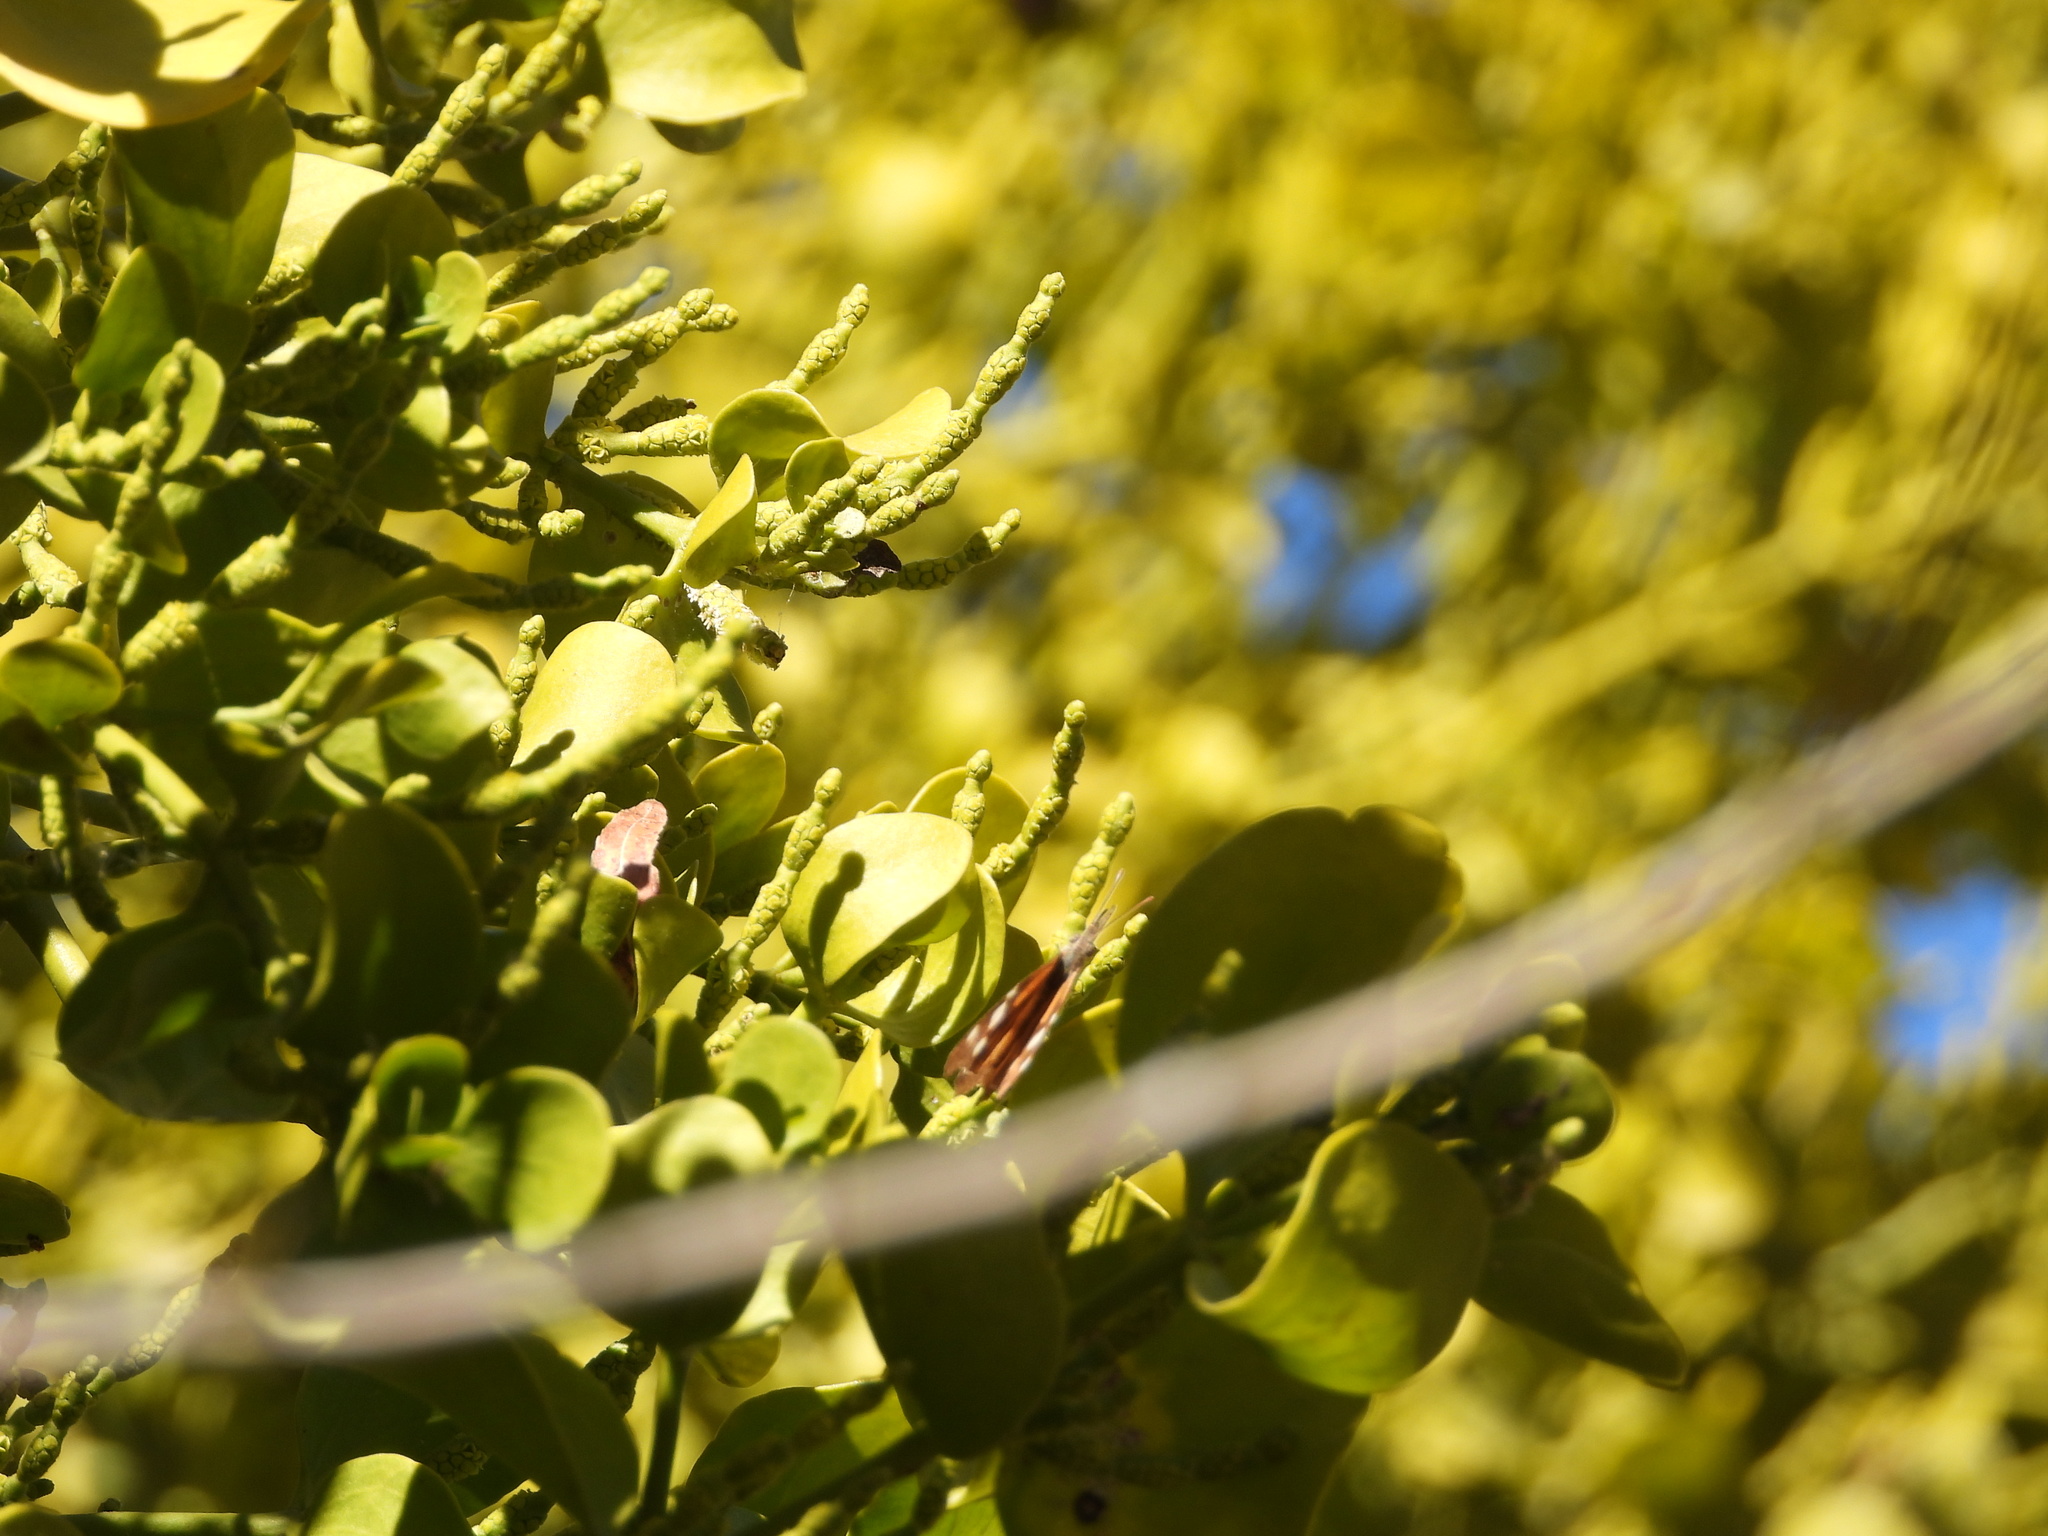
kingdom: Animalia
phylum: Arthropoda
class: Insecta
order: Lepidoptera
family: Nymphalidae
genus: Libytheana
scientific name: Libytheana carinenta
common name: American snout
